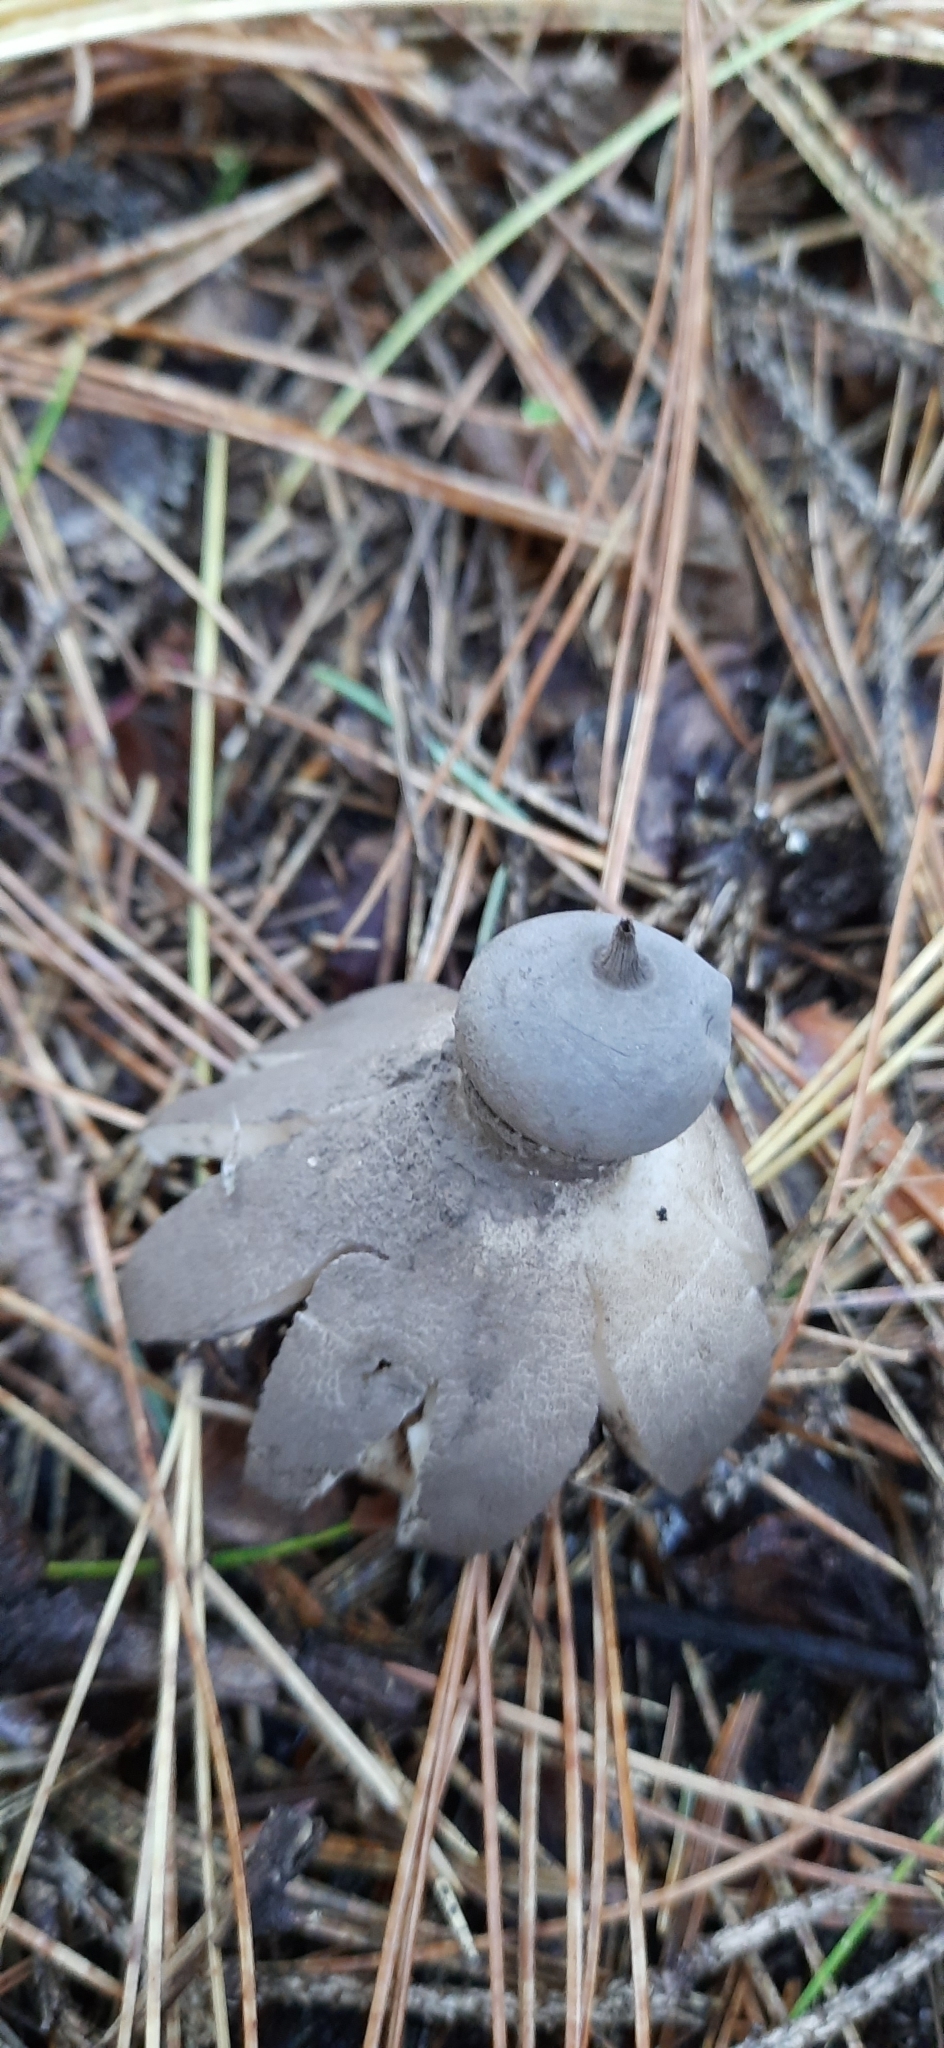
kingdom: Fungi
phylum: Basidiomycota
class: Agaricomycetes
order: Geastrales
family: Geastraceae
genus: Geastrum
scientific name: Geastrum pectinatum
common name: Beaked earthstar
